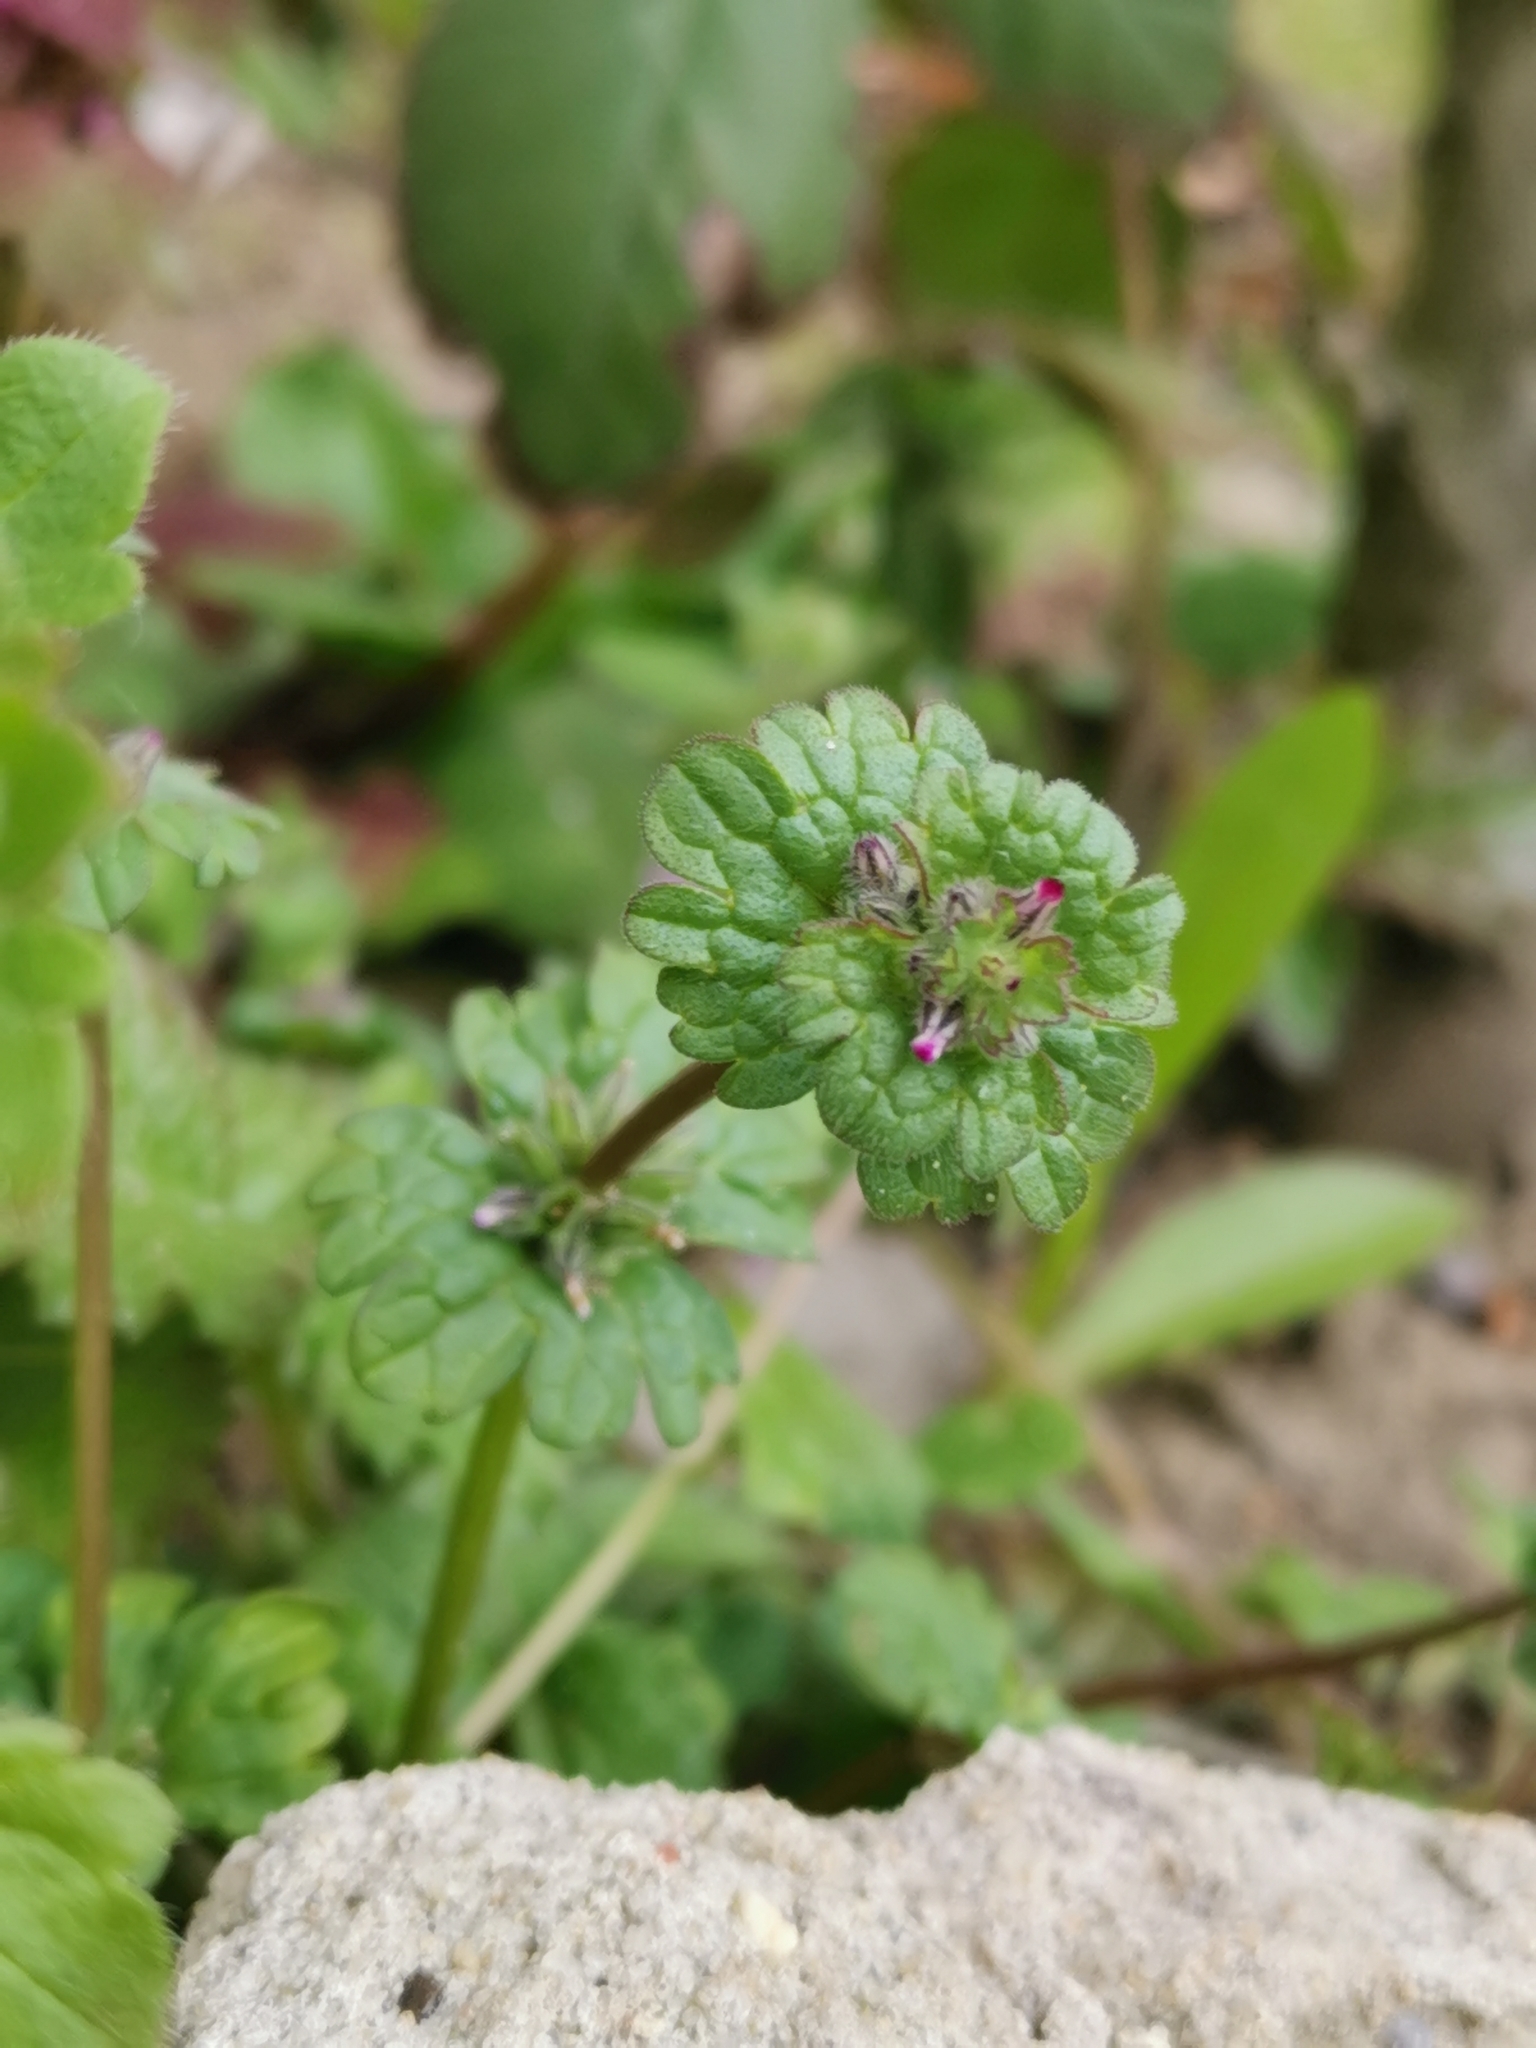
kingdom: Plantae
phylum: Tracheophyta
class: Magnoliopsida
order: Lamiales
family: Lamiaceae
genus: Lamium
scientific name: Lamium amplexicaule
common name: Henbit dead-nettle
